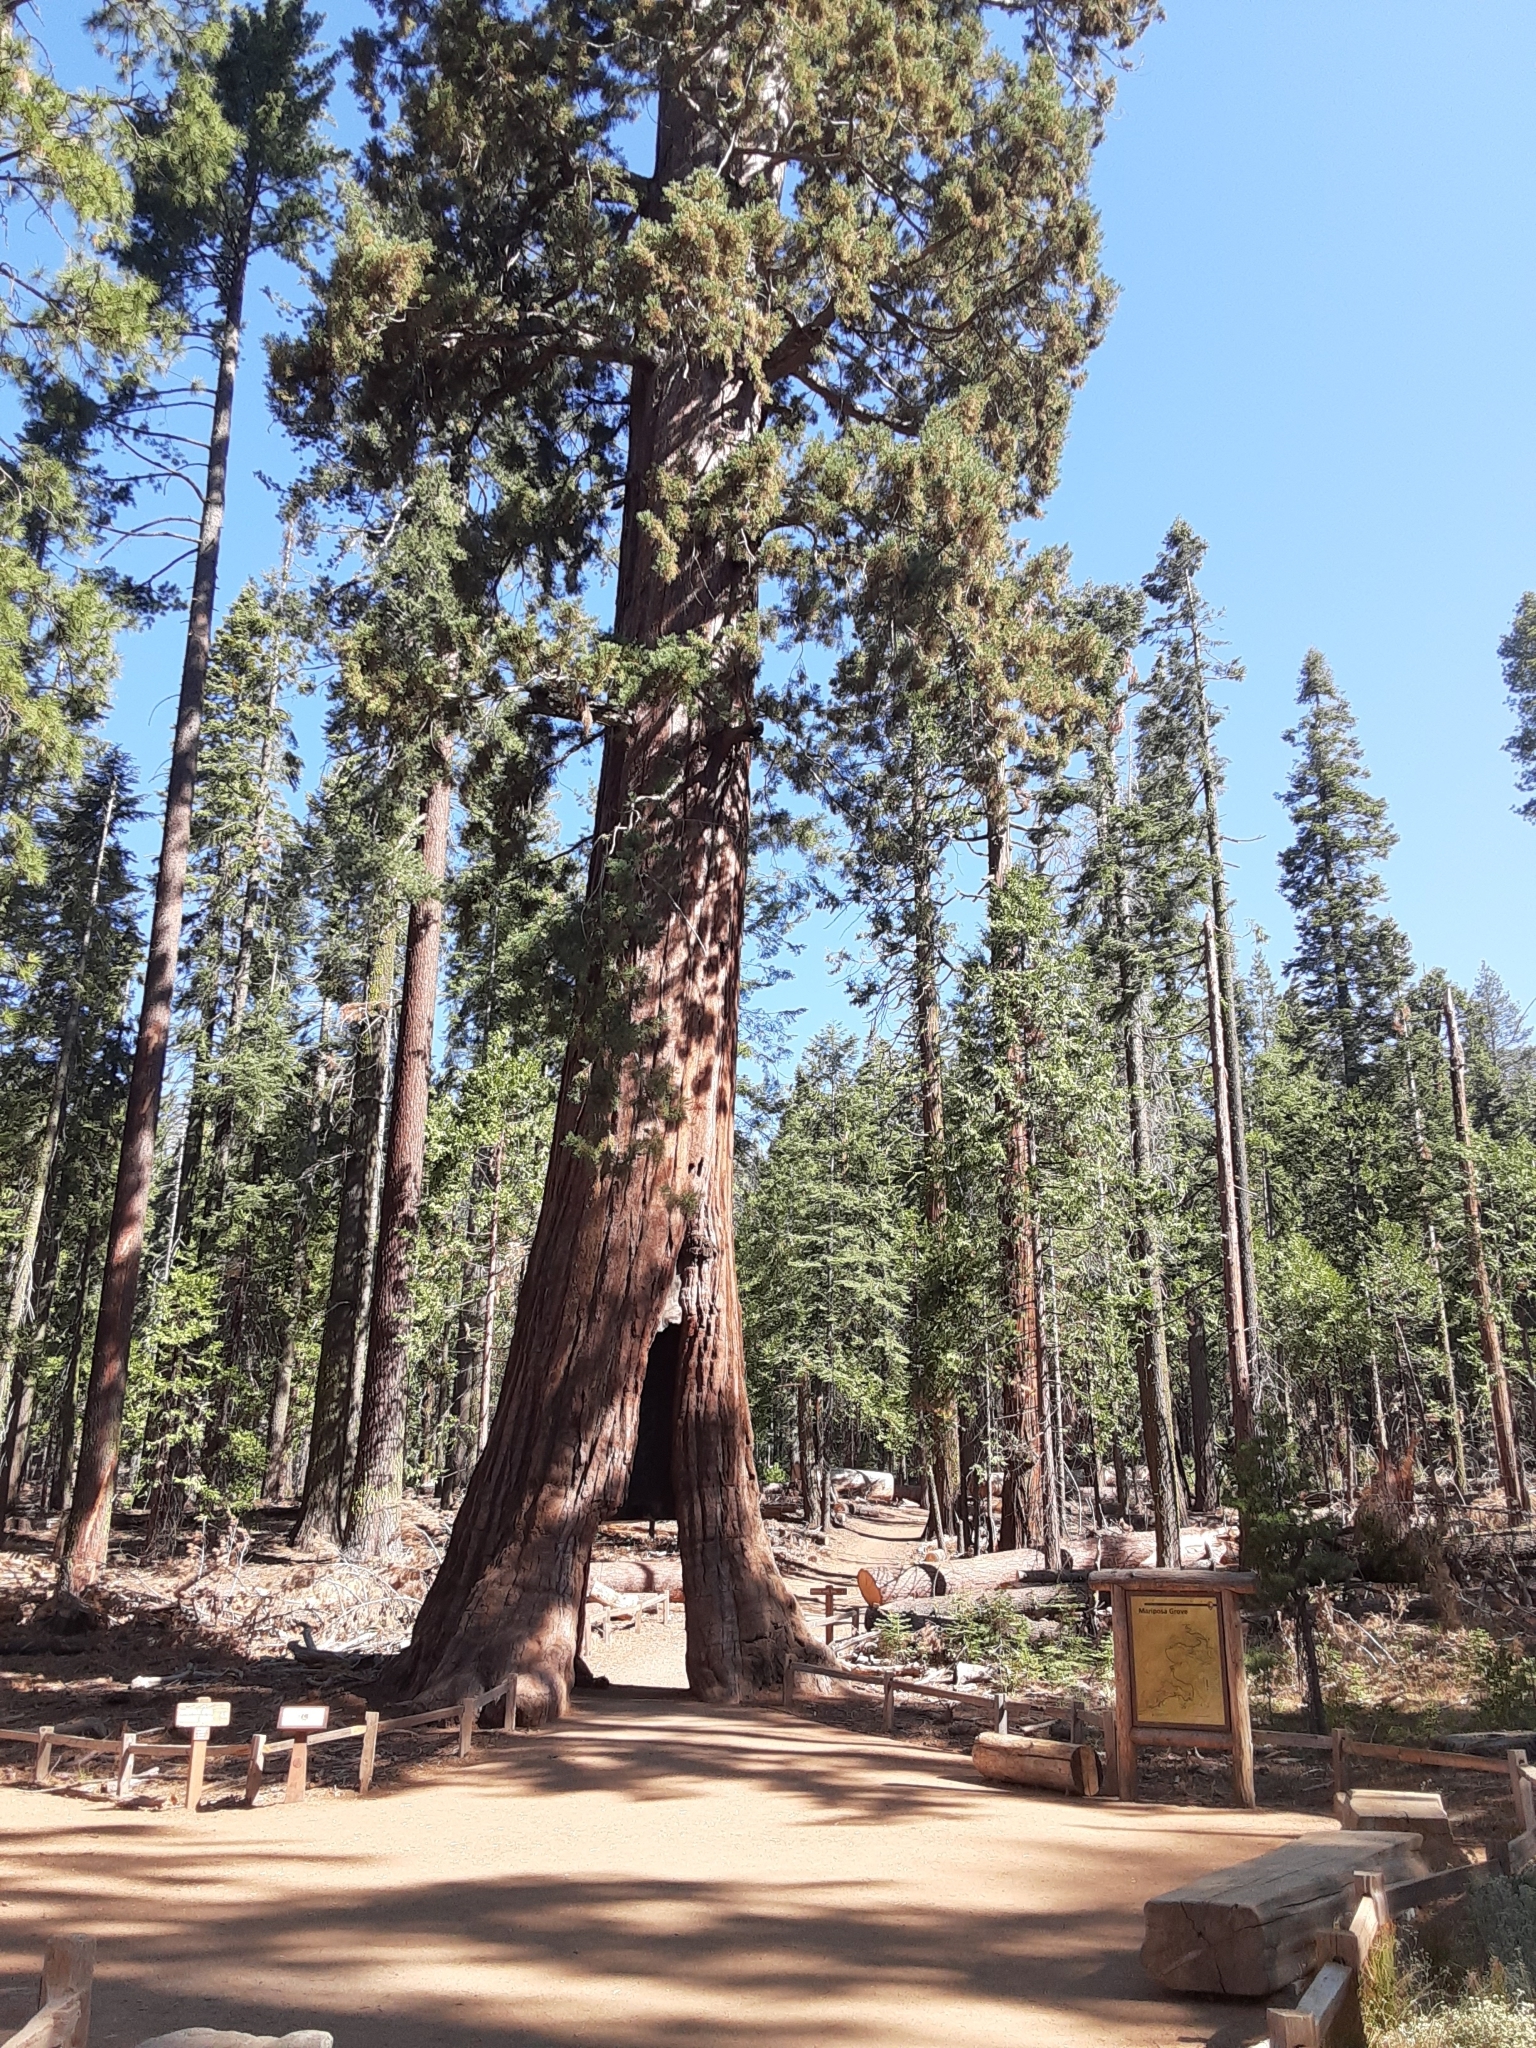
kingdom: Plantae
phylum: Tracheophyta
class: Pinopsida
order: Pinales
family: Cupressaceae
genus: Sequoiadendron
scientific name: Sequoiadendron giganteum
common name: Wellingtonia
